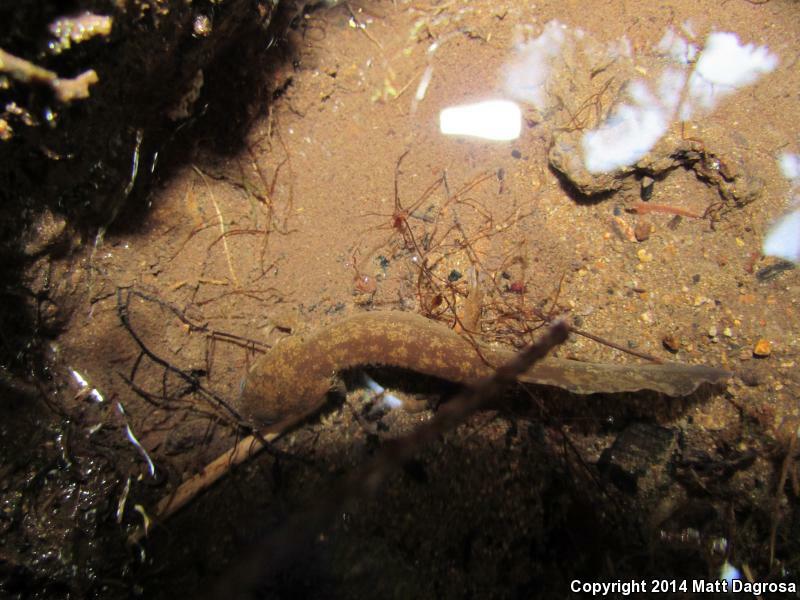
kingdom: Animalia
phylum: Chordata
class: Amphibia
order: Caudata
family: Ambystomatidae
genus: Dicamptodon
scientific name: Dicamptodon tenebrosus
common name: Coastal giant salamander
